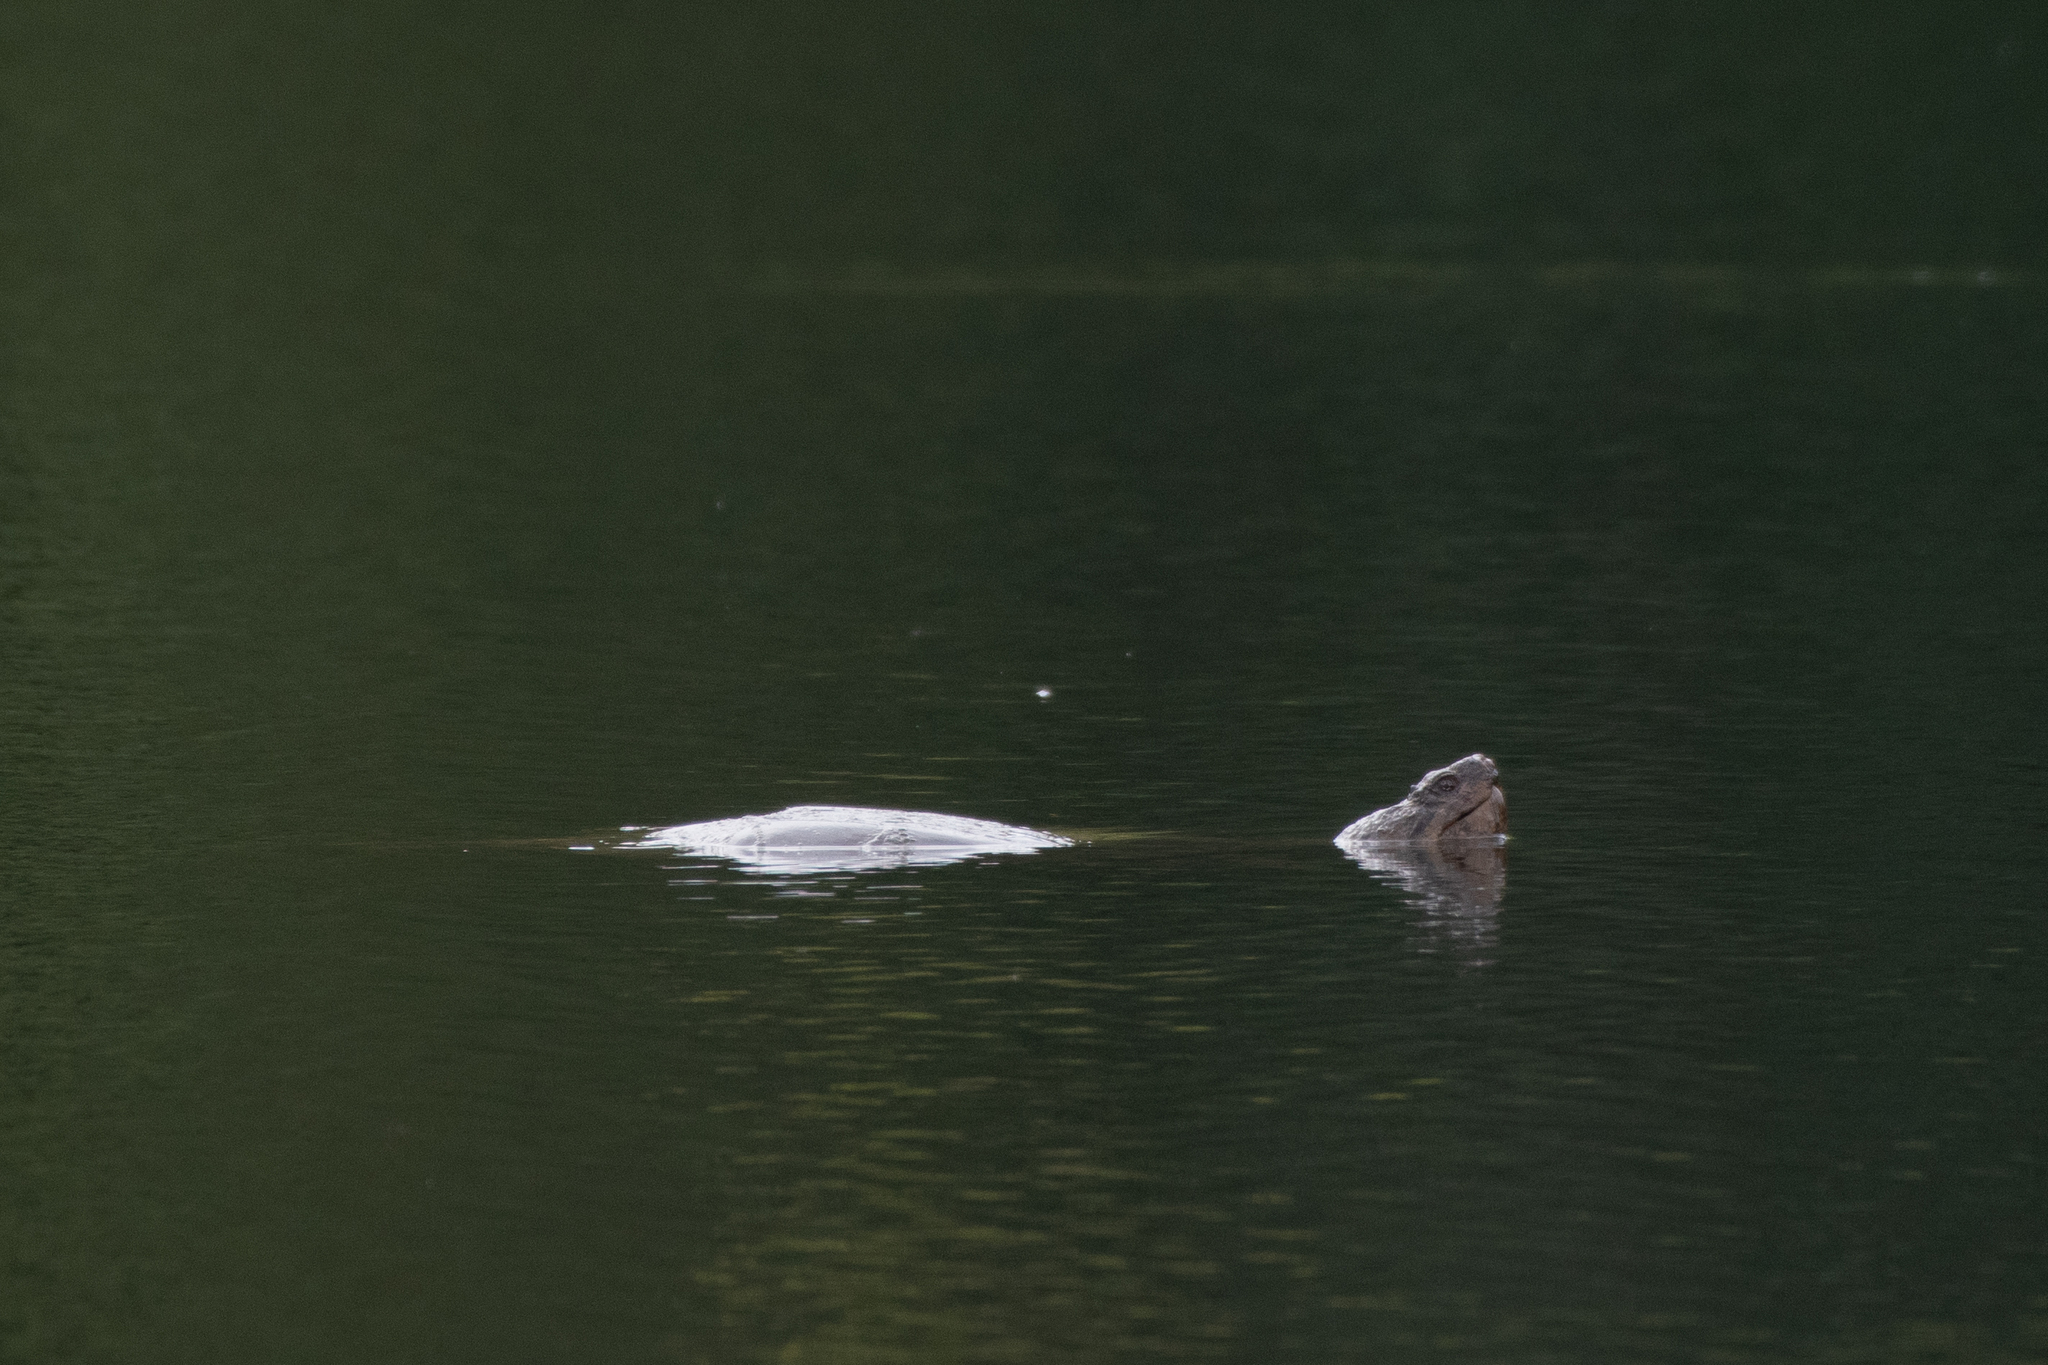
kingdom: Animalia
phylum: Chordata
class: Testudines
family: Chelydridae
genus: Chelydra
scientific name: Chelydra serpentina
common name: Common snapping turtle
